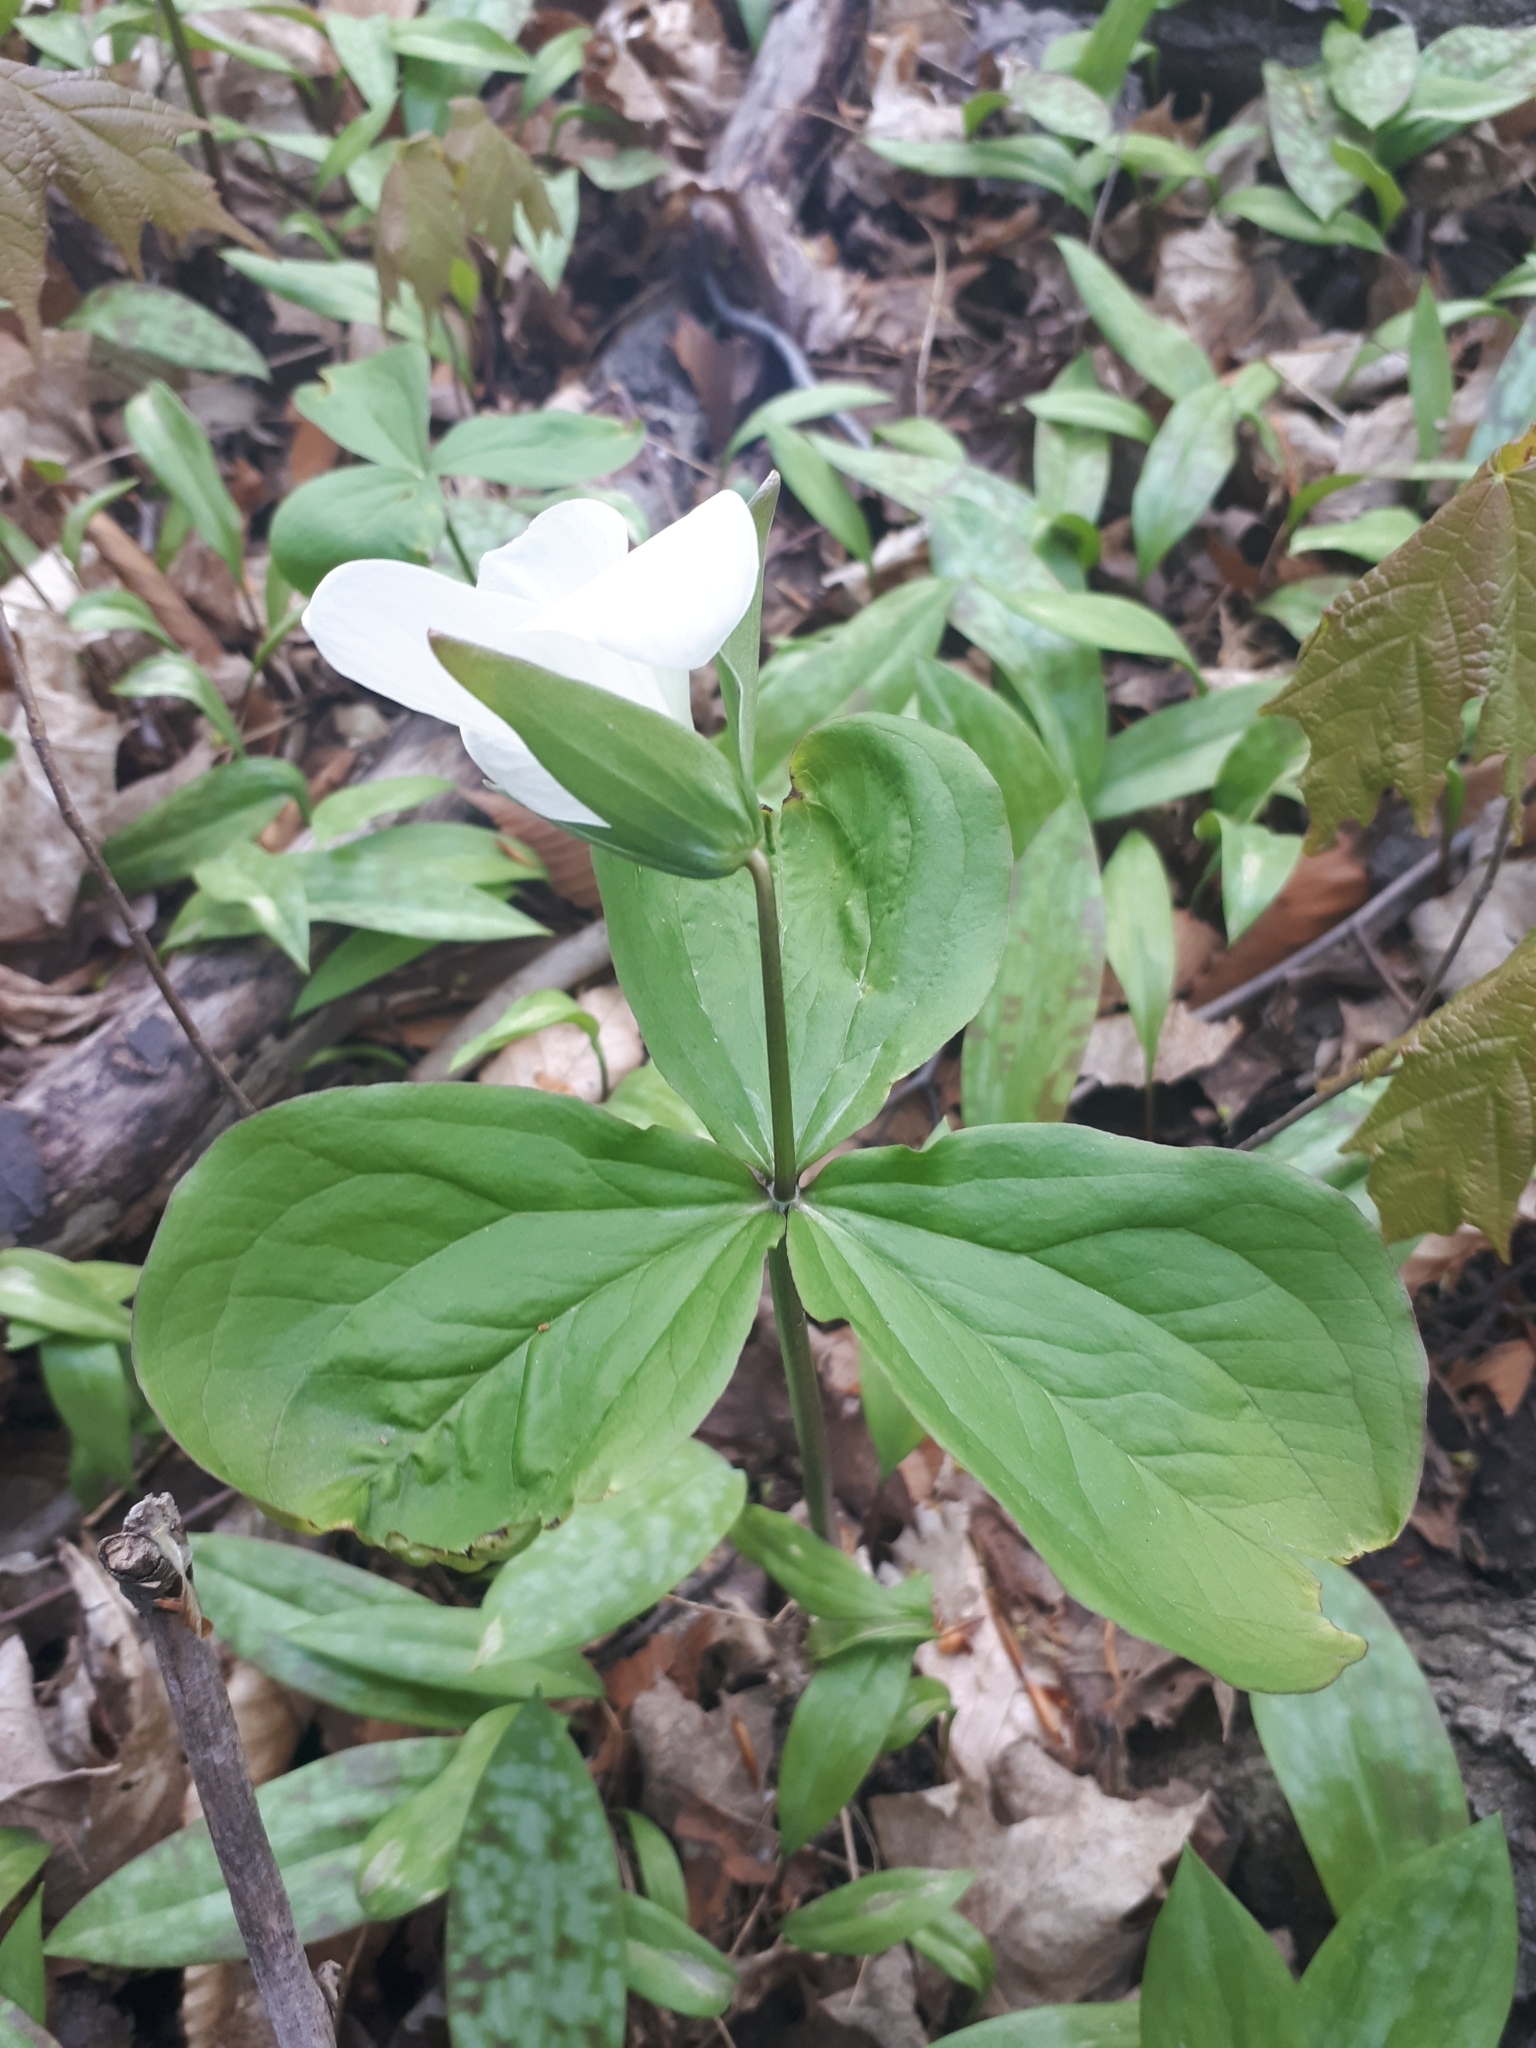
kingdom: Plantae
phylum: Tracheophyta
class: Liliopsida
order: Liliales
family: Melanthiaceae
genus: Trillium
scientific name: Trillium grandiflorum
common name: Great white trillium
